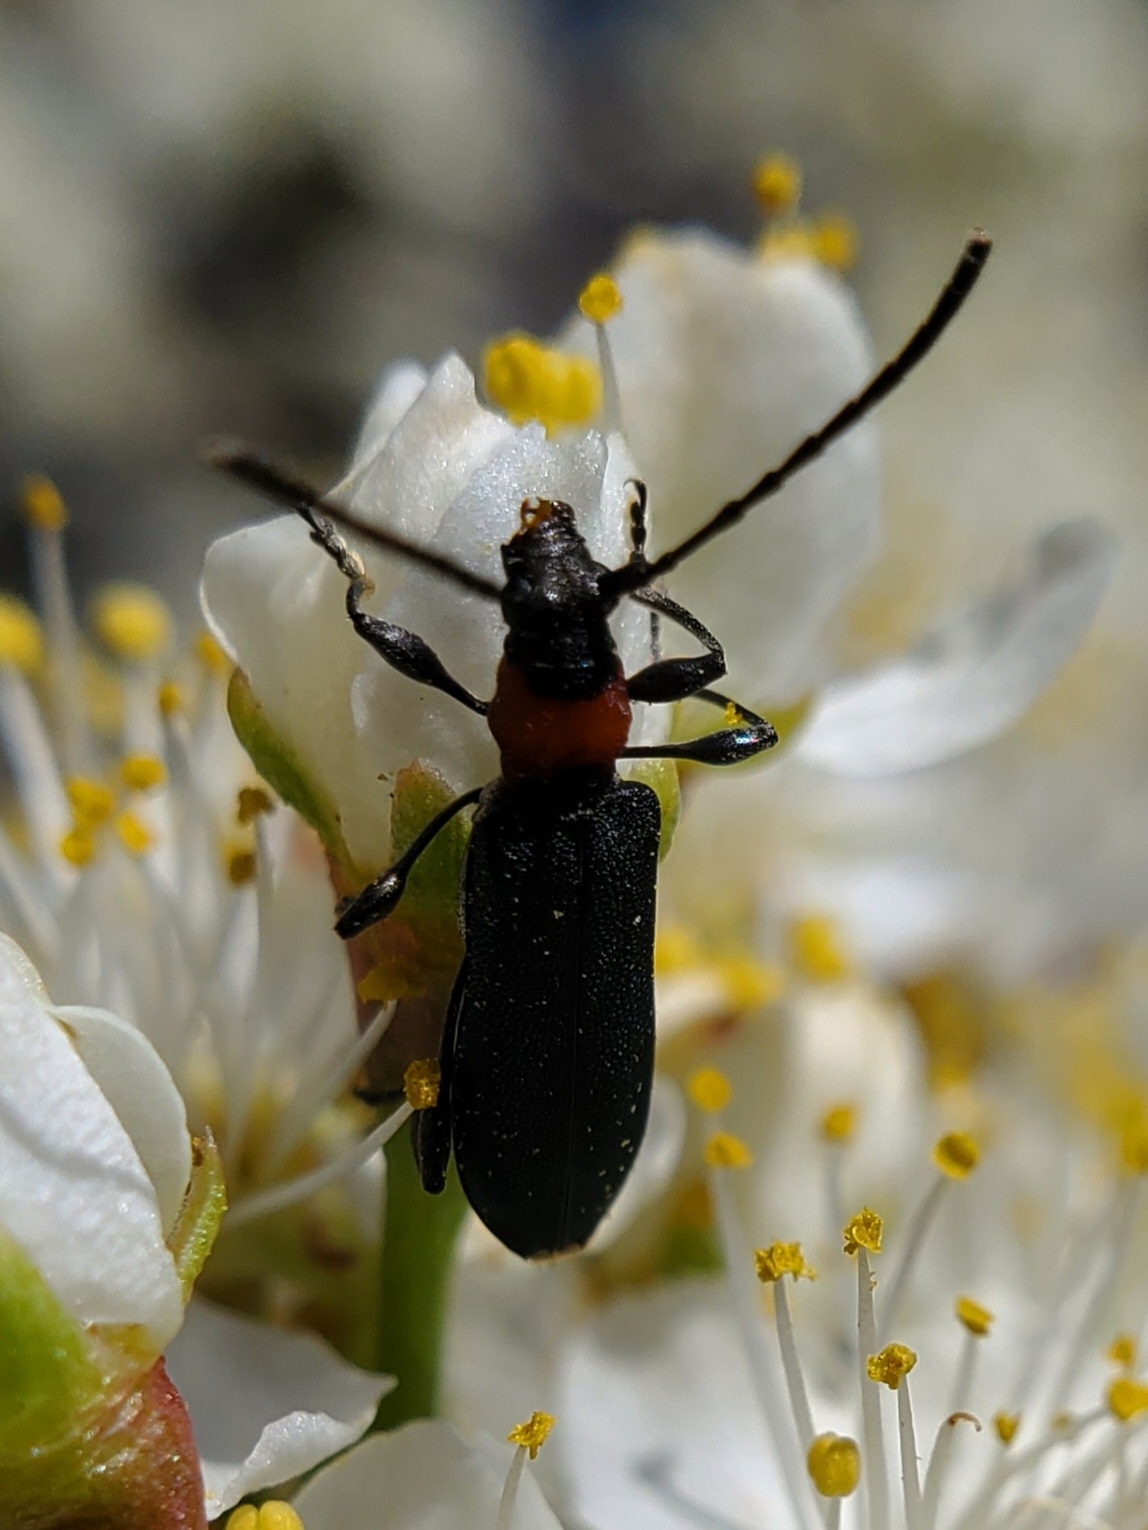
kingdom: Animalia
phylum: Arthropoda
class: Insecta
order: Coleoptera
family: Cerambycidae
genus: Dere
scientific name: Dere thoracica
